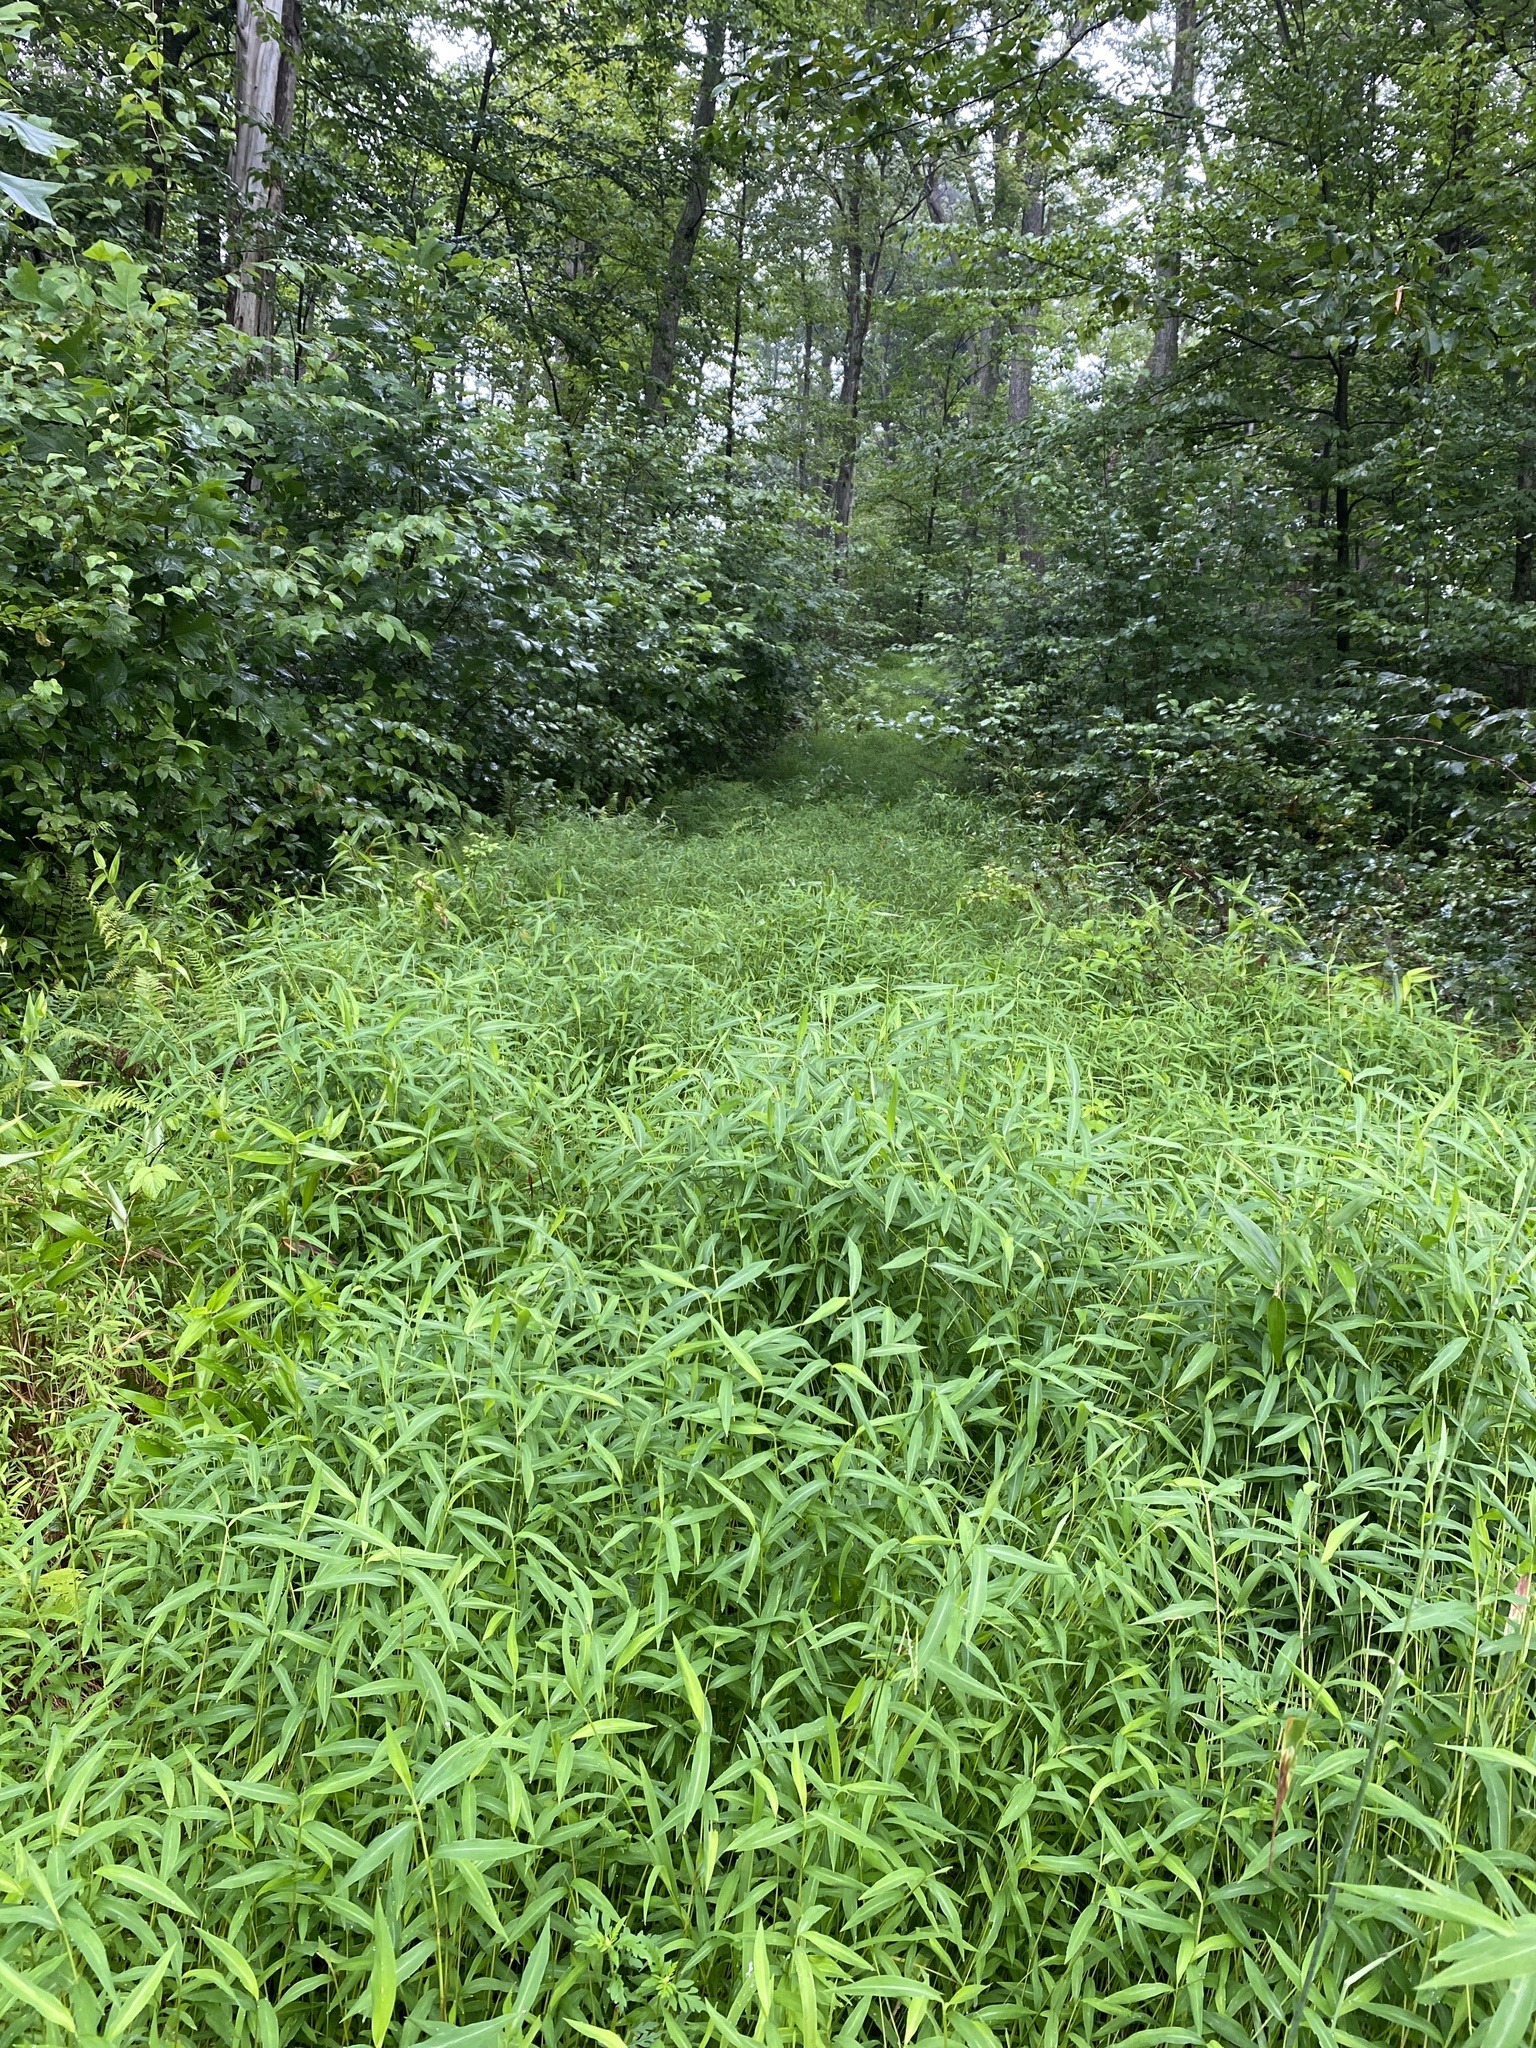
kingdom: Plantae
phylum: Tracheophyta
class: Liliopsida
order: Poales
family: Poaceae
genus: Microstegium
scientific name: Microstegium vimineum
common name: Japanese stiltgrass
